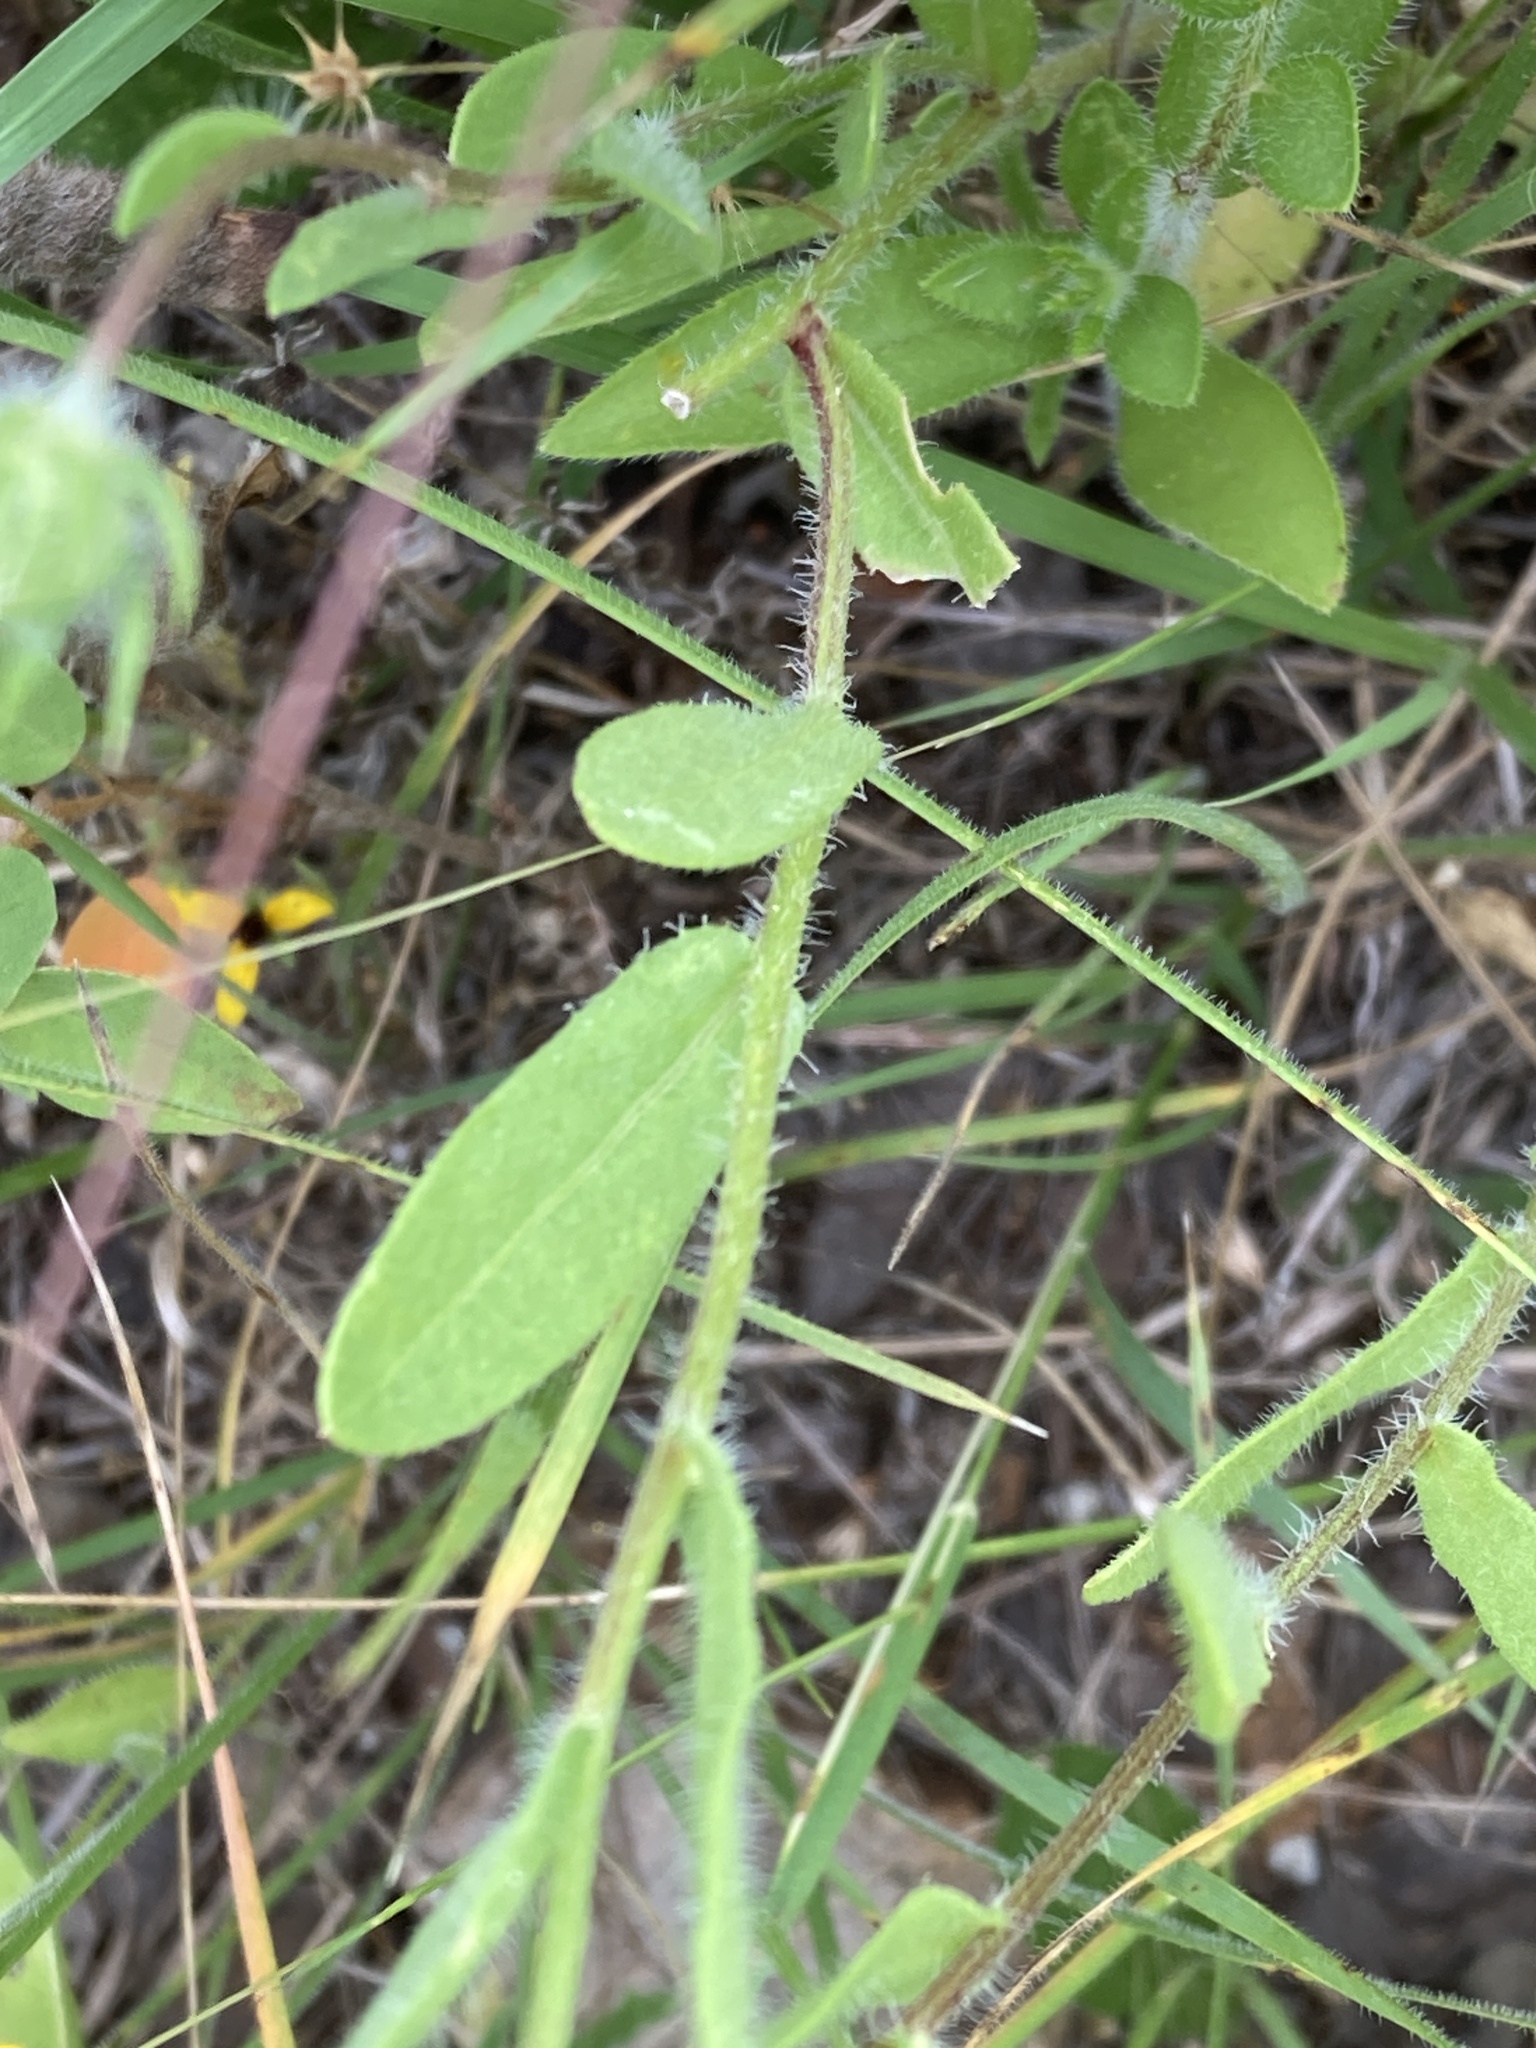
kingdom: Plantae
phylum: Tracheophyta
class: Magnoliopsida
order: Asterales
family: Asteraceae
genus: Gaillardia
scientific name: Gaillardia pulchella
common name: Firewheel
